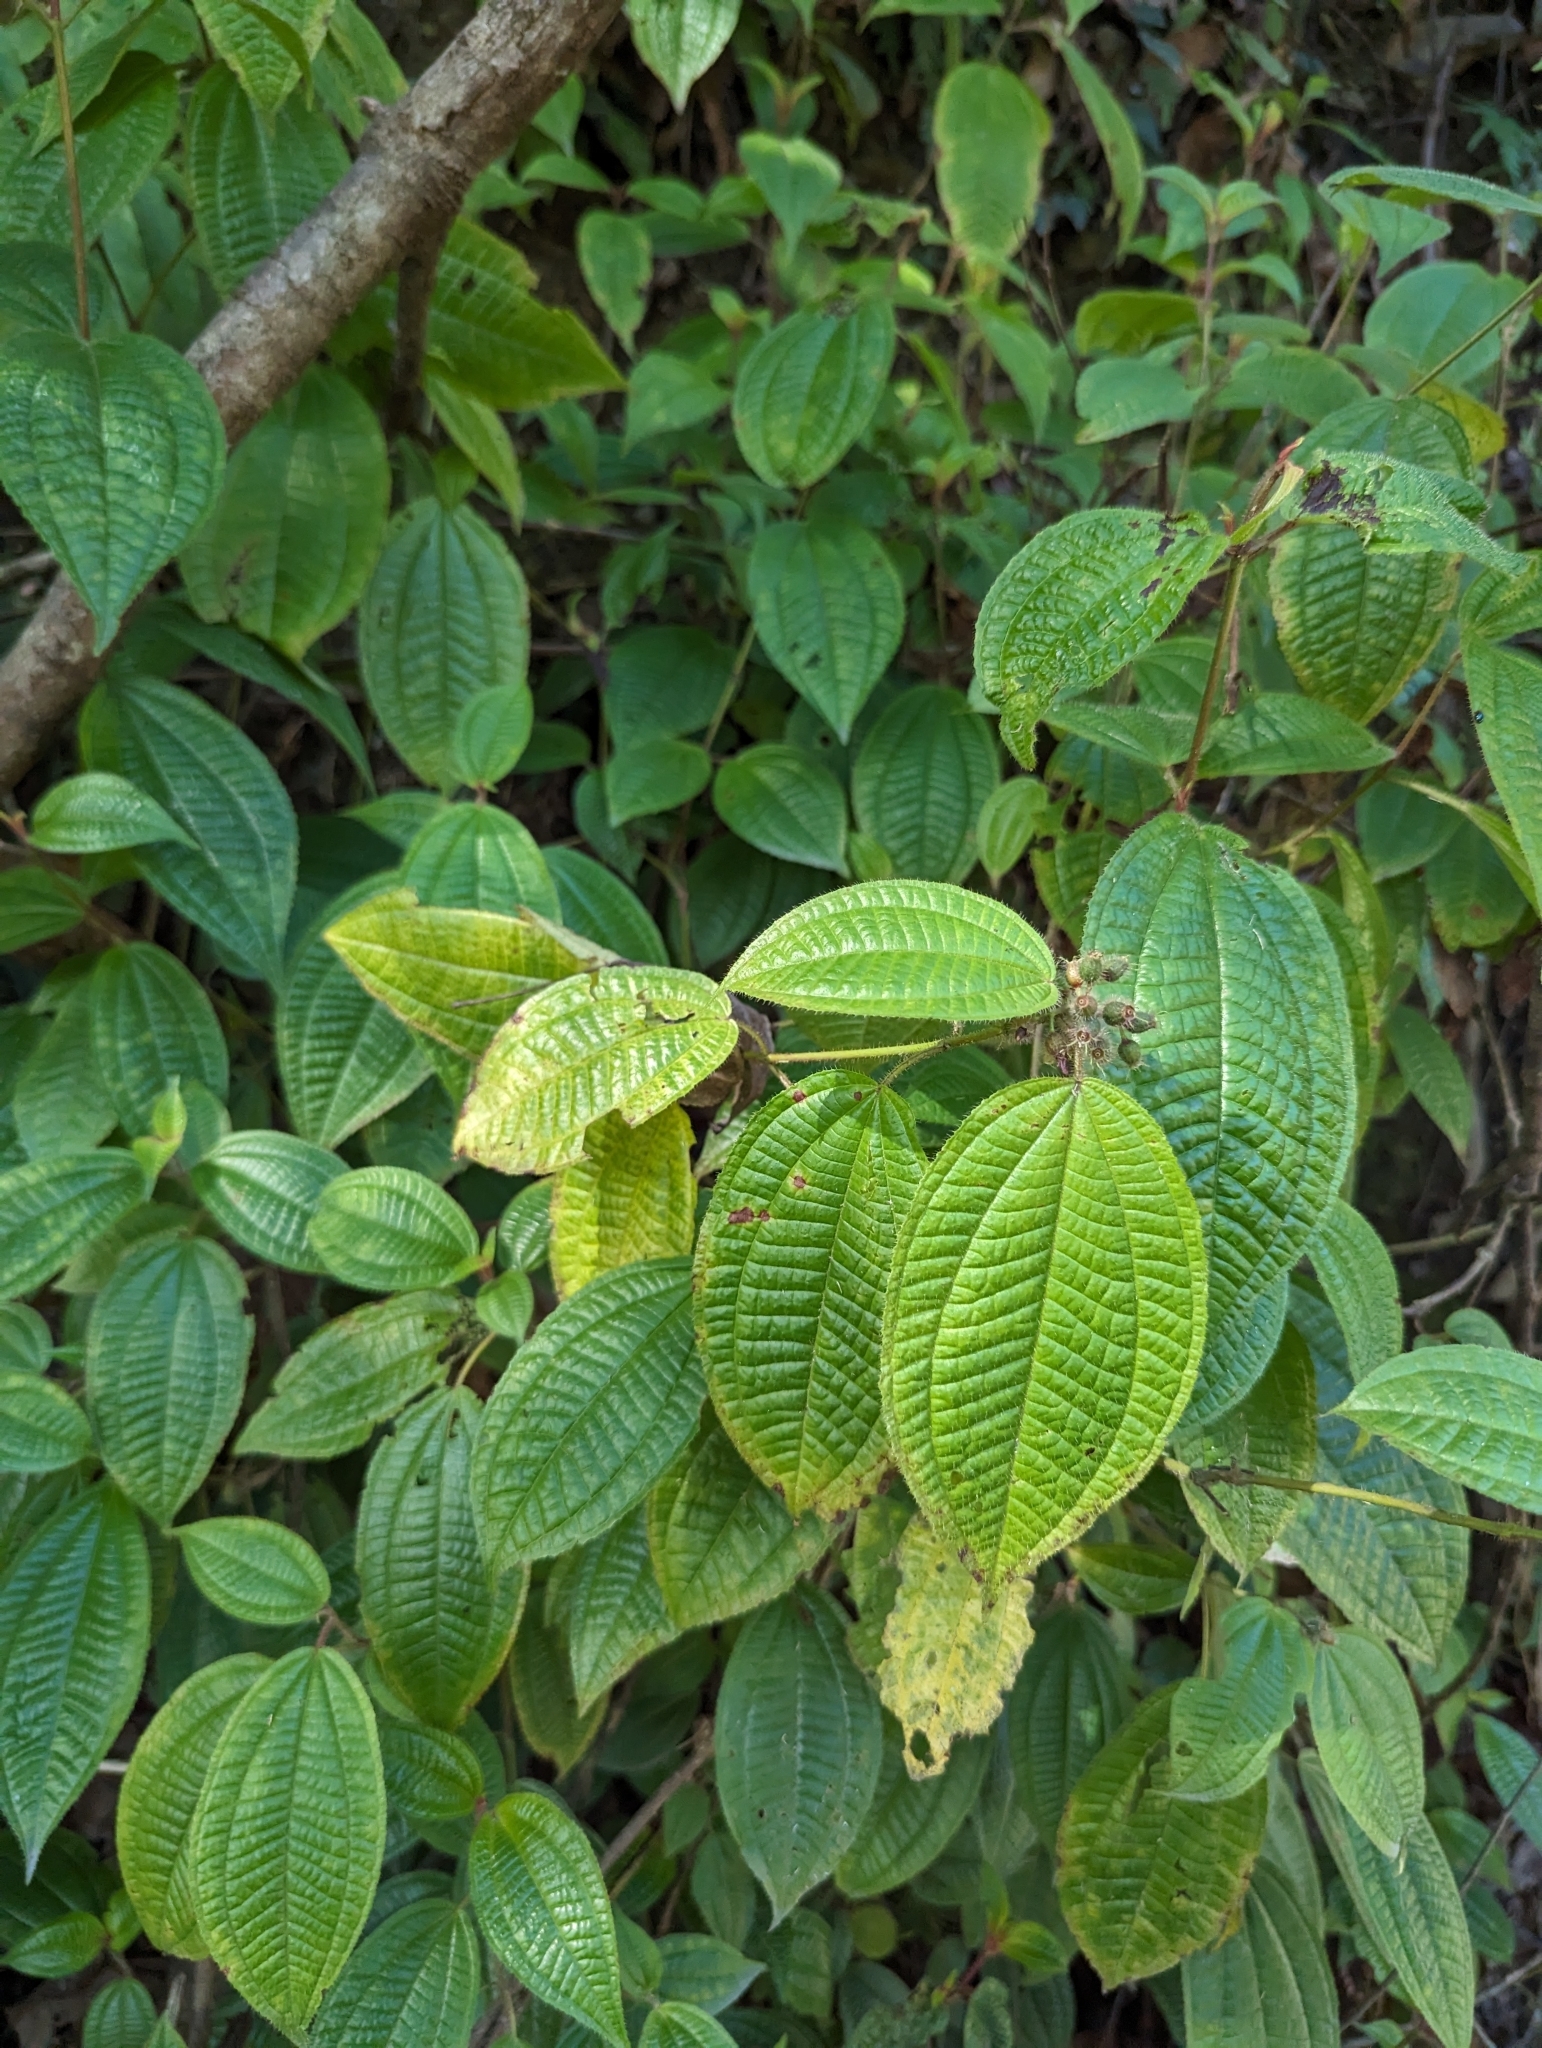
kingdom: Plantae
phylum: Tracheophyta
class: Magnoliopsida
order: Myrtales
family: Melastomataceae
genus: Miconia
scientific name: Miconia crenata
